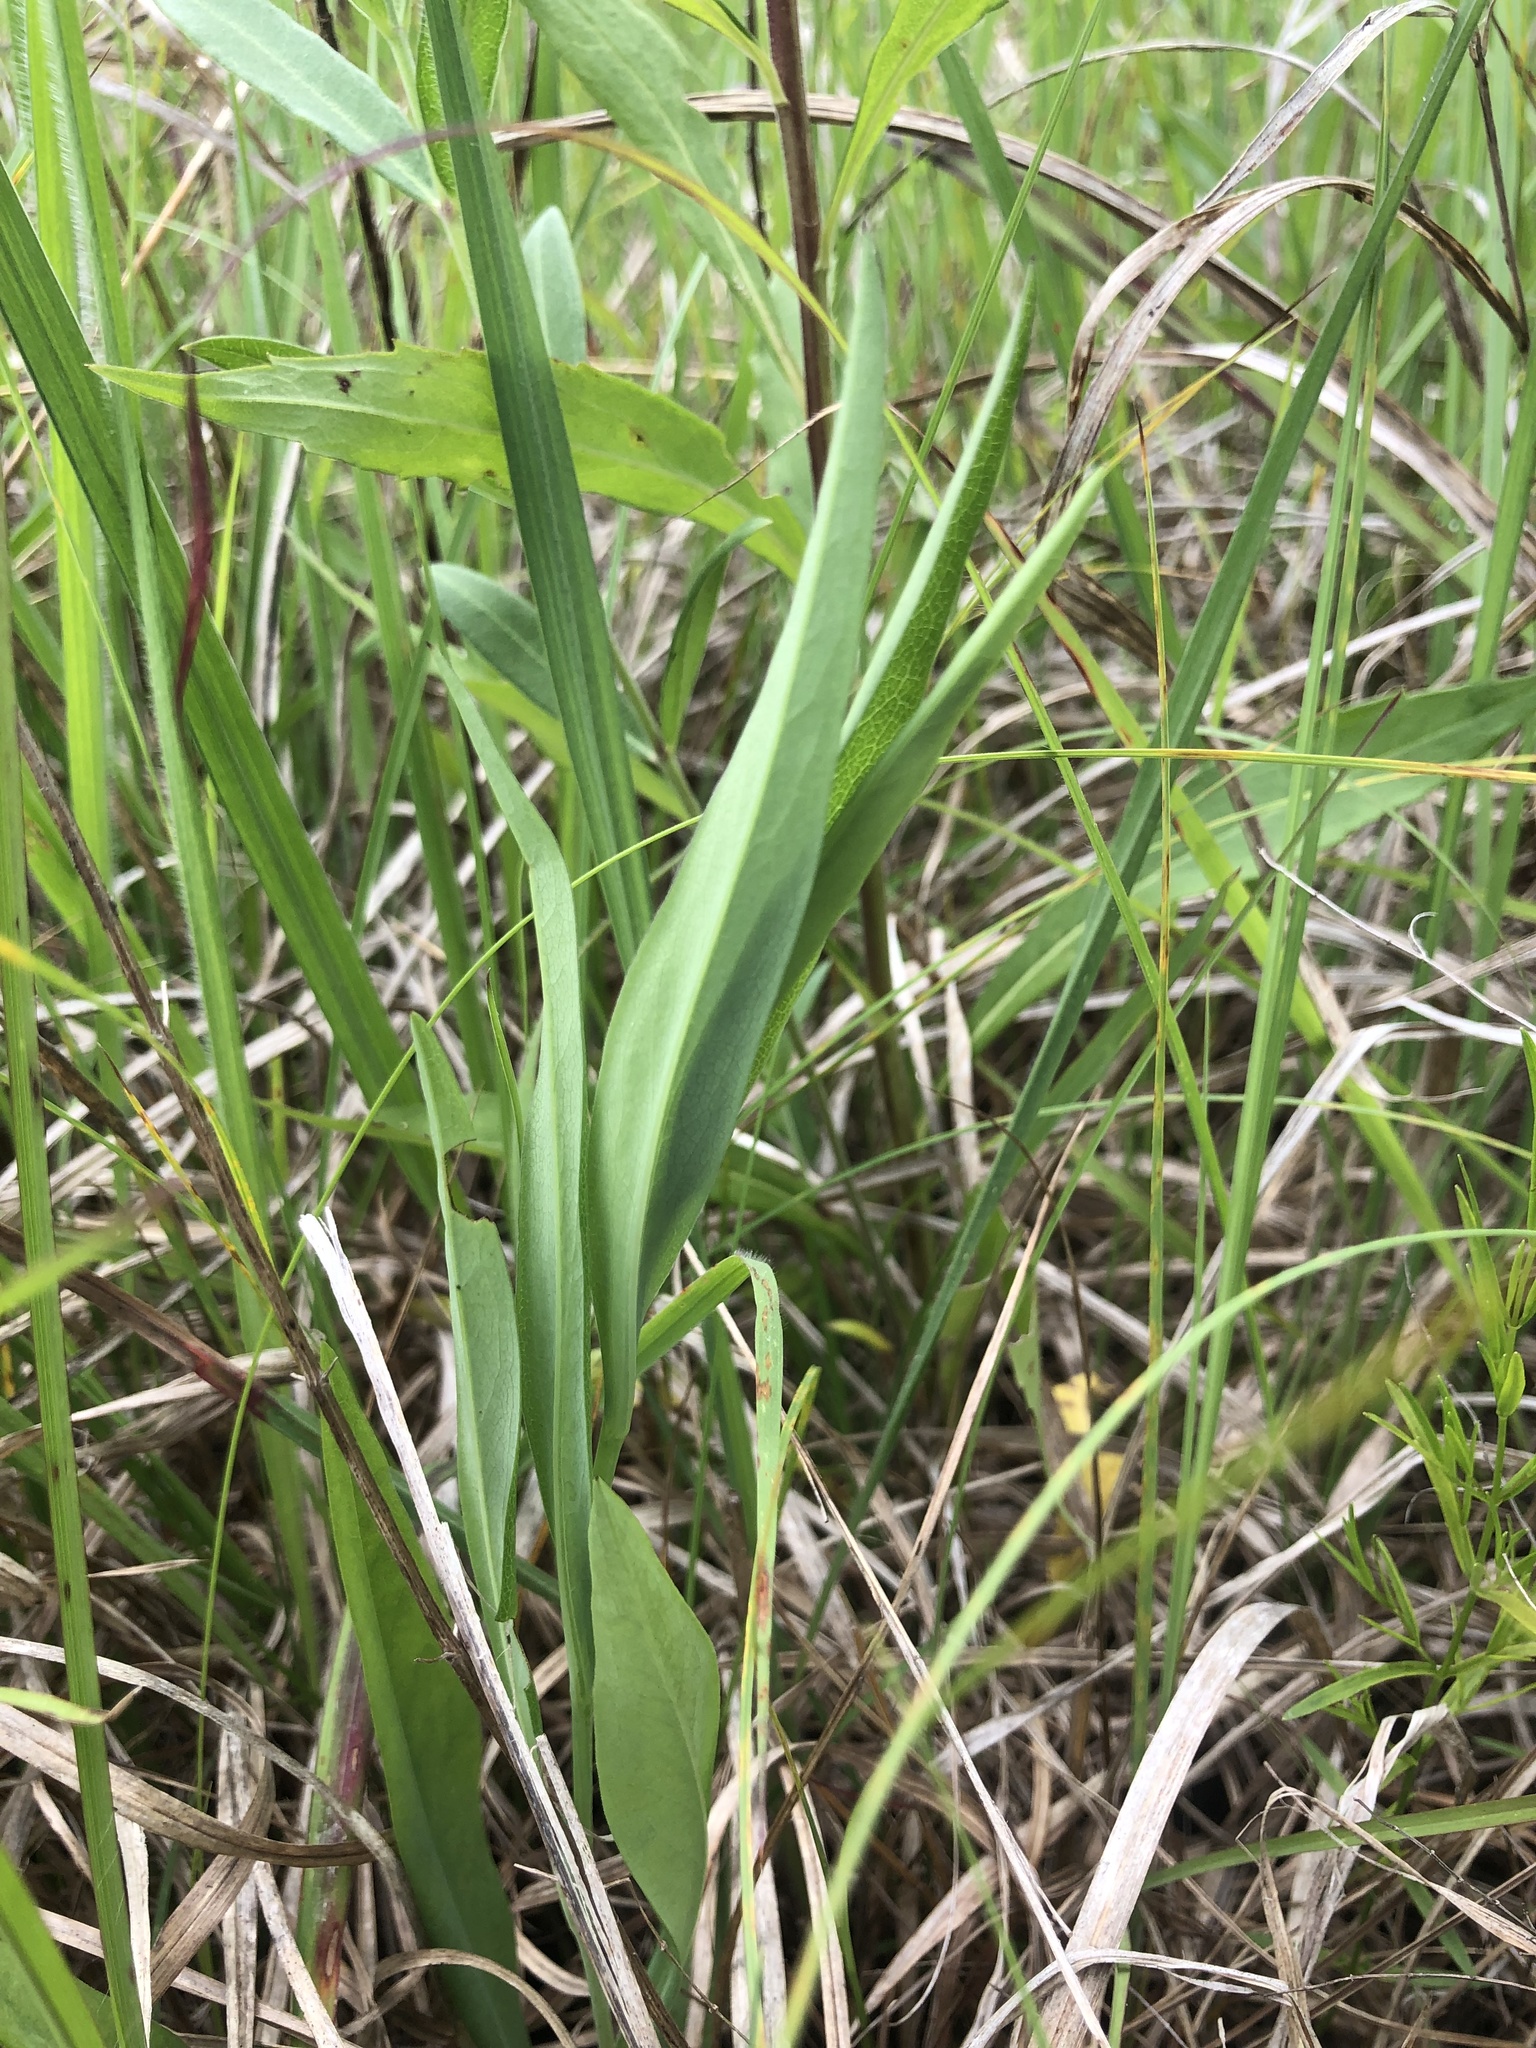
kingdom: Plantae
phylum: Tracheophyta
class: Magnoliopsida
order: Asterales
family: Asteraceae
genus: Symphyotrichum
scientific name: Symphyotrichum laeve
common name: Glaucous aster
